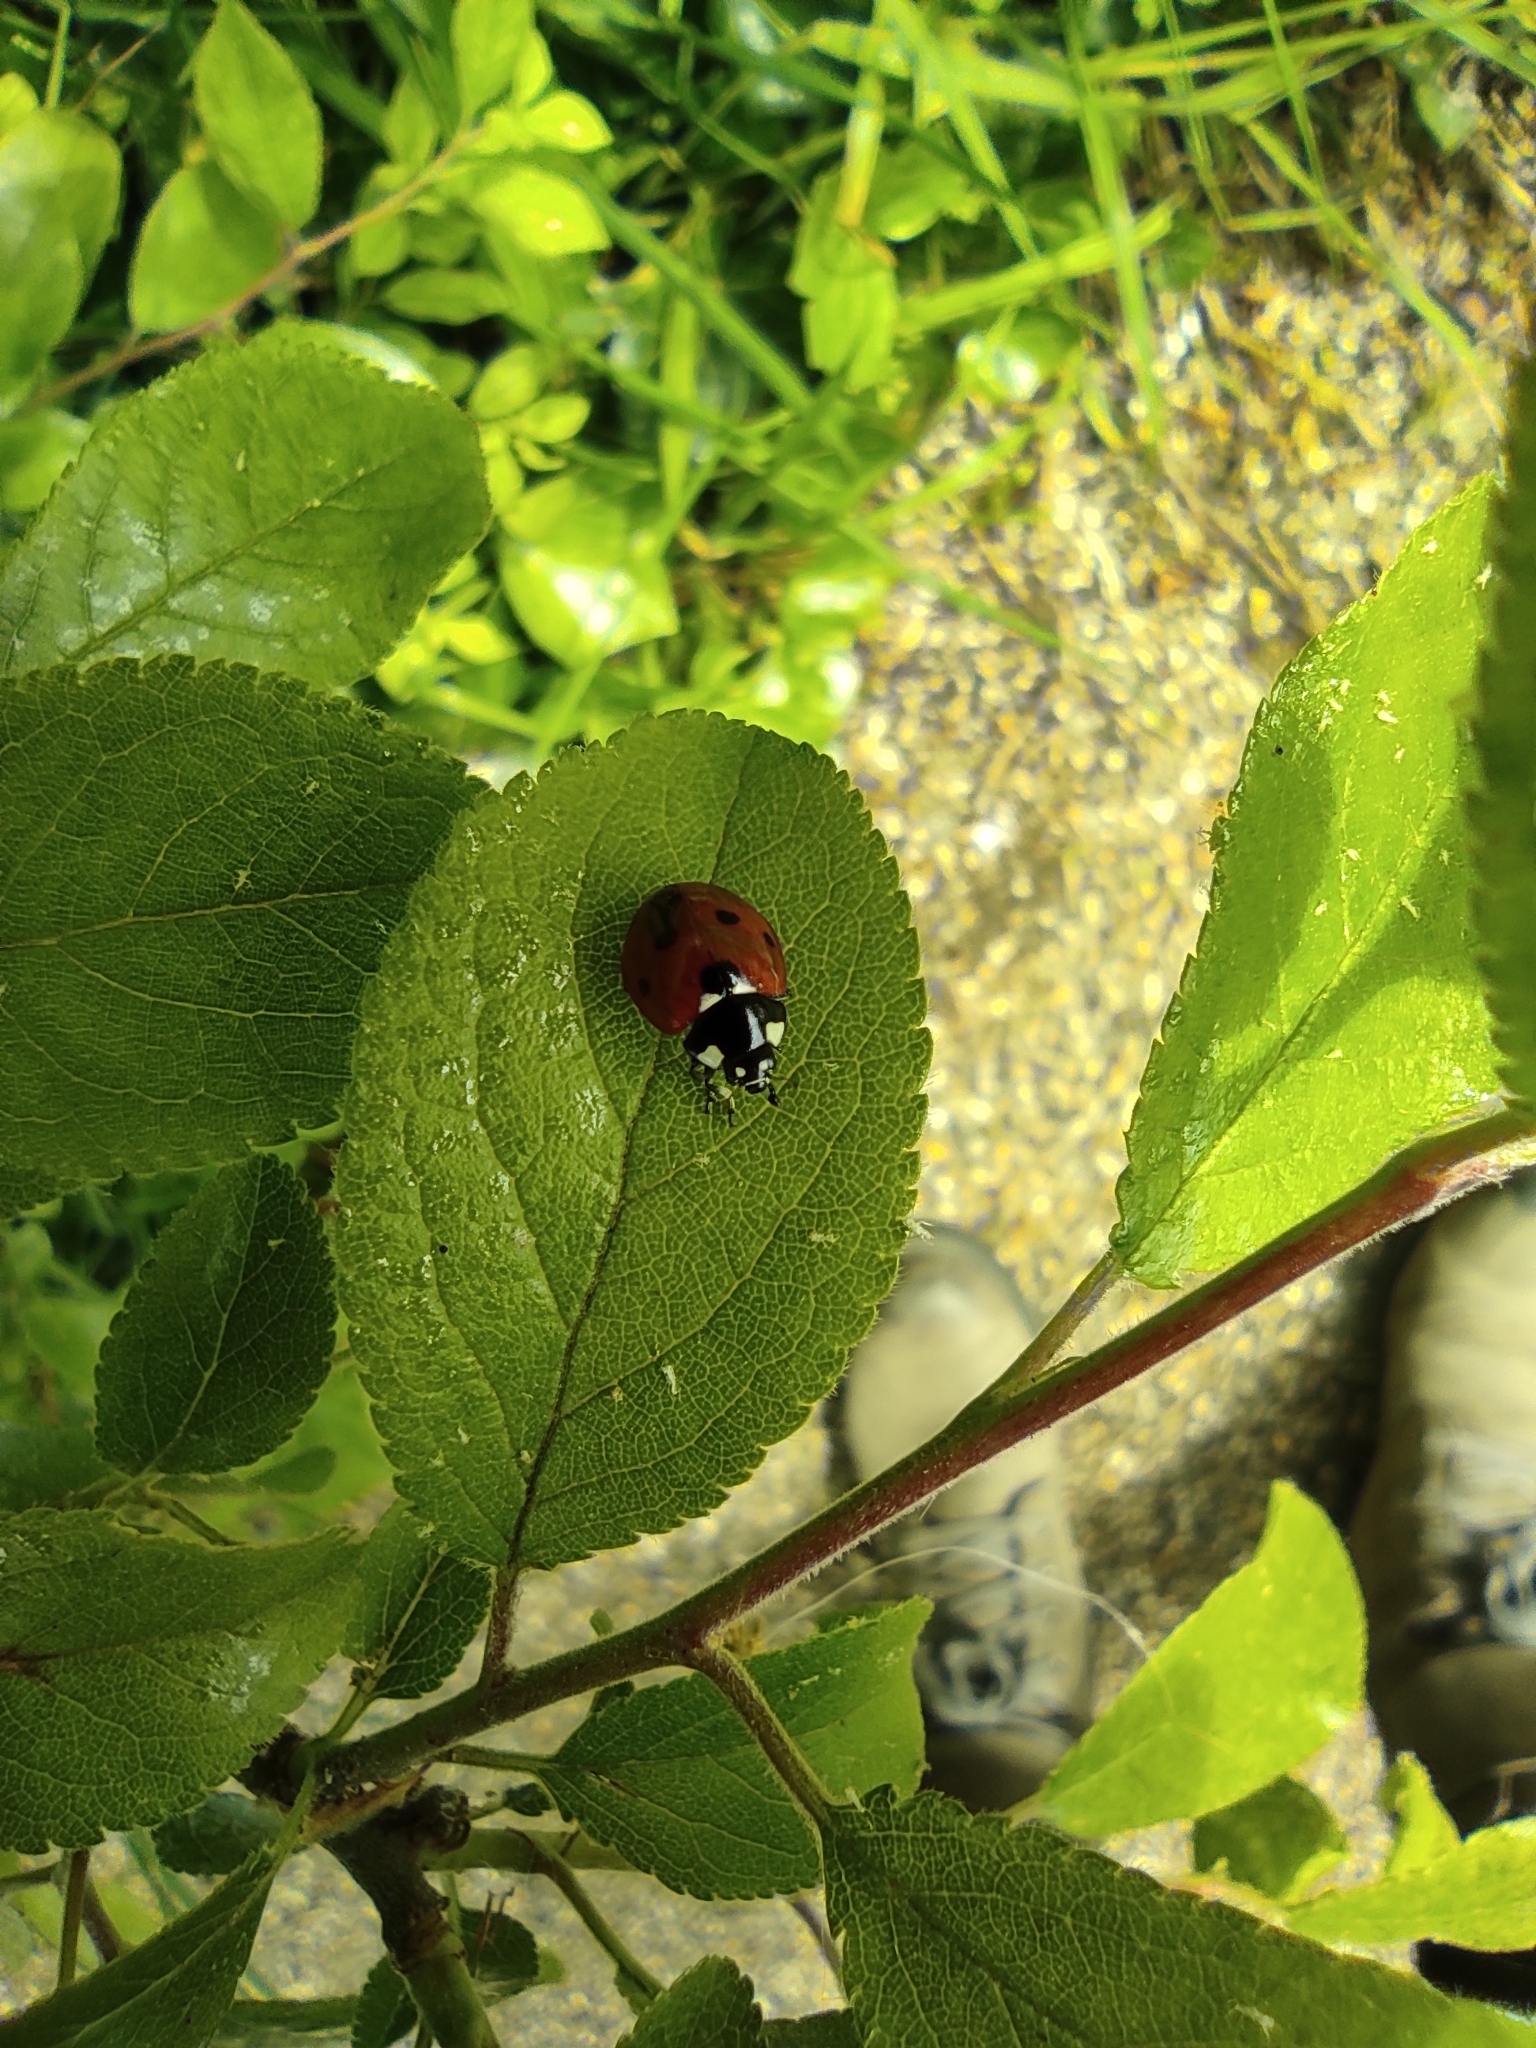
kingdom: Animalia
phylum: Arthropoda
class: Insecta
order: Coleoptera
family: Coccinellidae
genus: Coccinella
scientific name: Coccinella septempunctata
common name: Sevenspotted lady beetle
